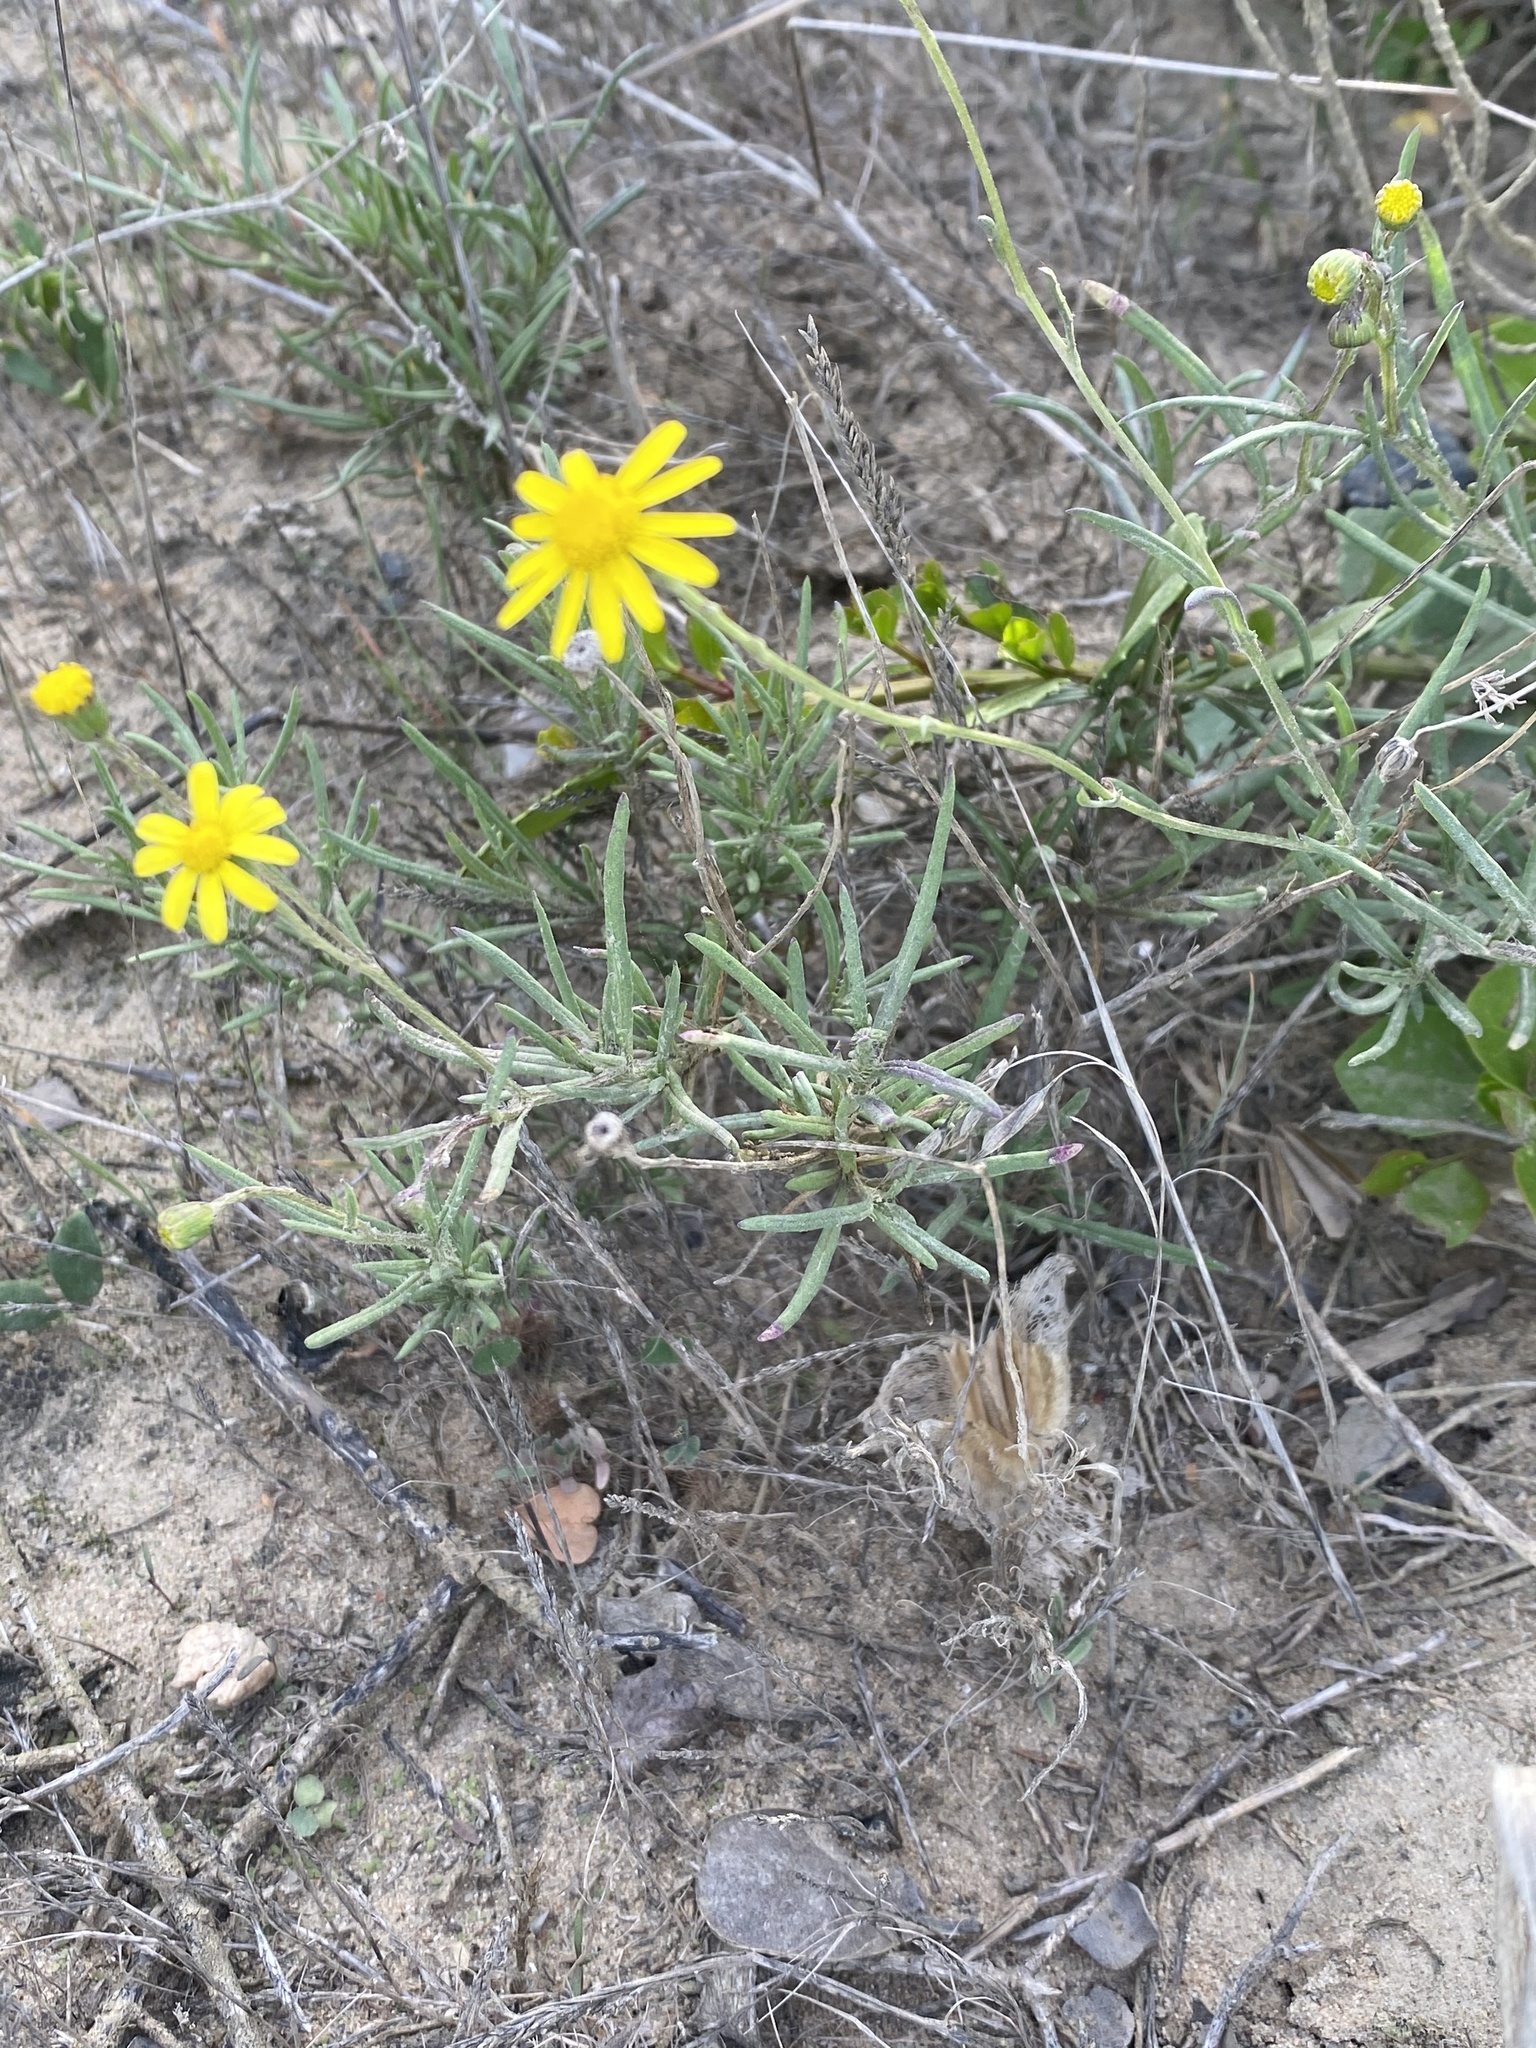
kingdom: Plantae
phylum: Tracheophyta
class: Magnoliopsida
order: Asterales
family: Asteraceae
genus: Senecio
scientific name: Senecio inaequidens
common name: Narrow-leaved ragwort
